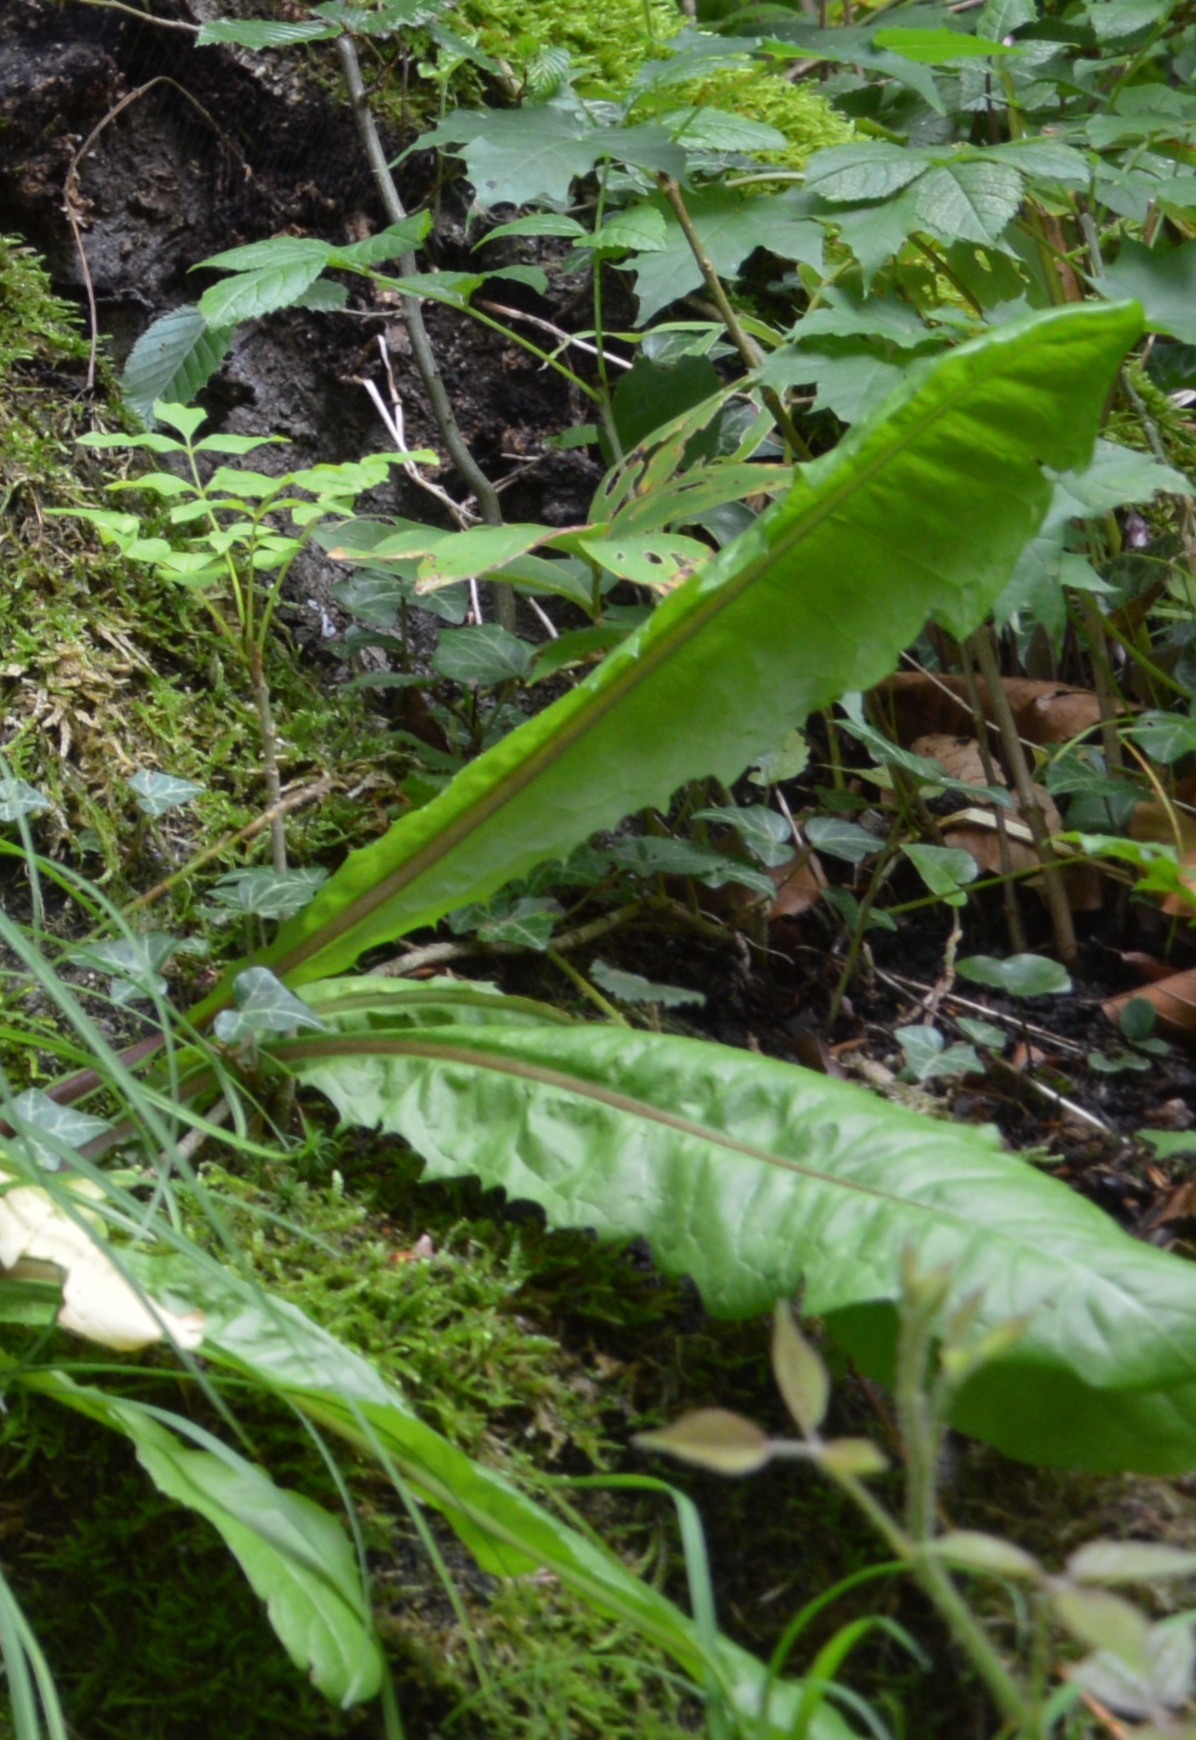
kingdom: Plantae
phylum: Tracheophyta
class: Magnoliopsida
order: Asterales
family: Asteraceae
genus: Taraxacum
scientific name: Taraxacum
